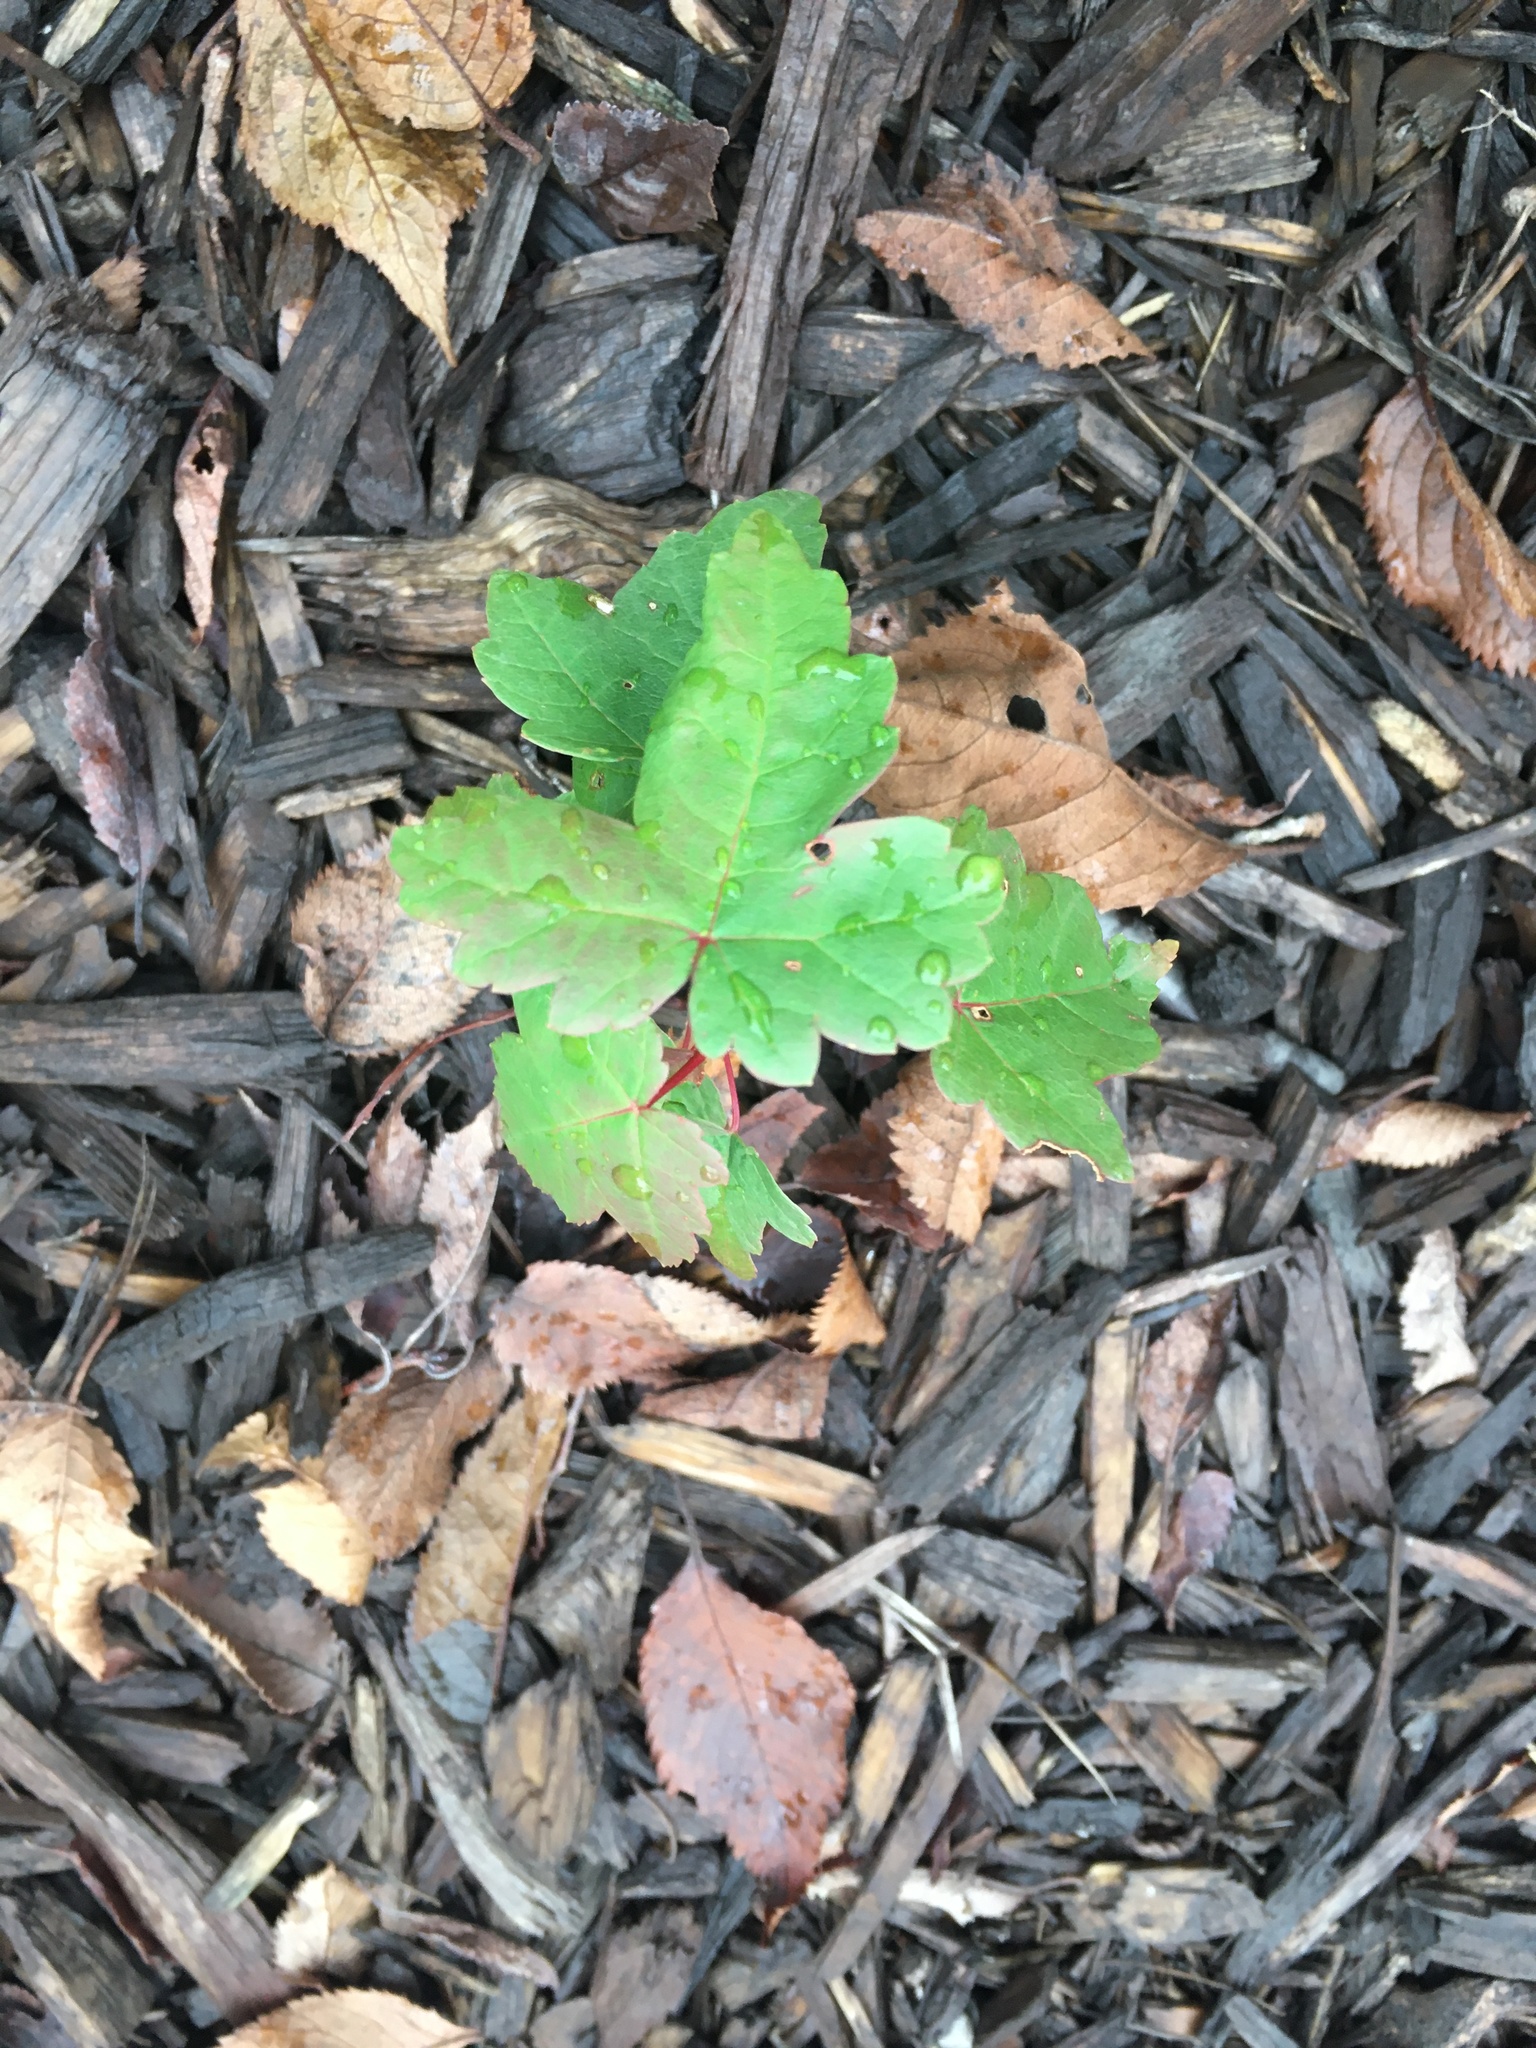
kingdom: Plantae
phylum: Tracheophyta
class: Magnoliopsida
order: Sapindales
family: Sapindaceae
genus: Acer
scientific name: Acer rubrum
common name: Red maple
